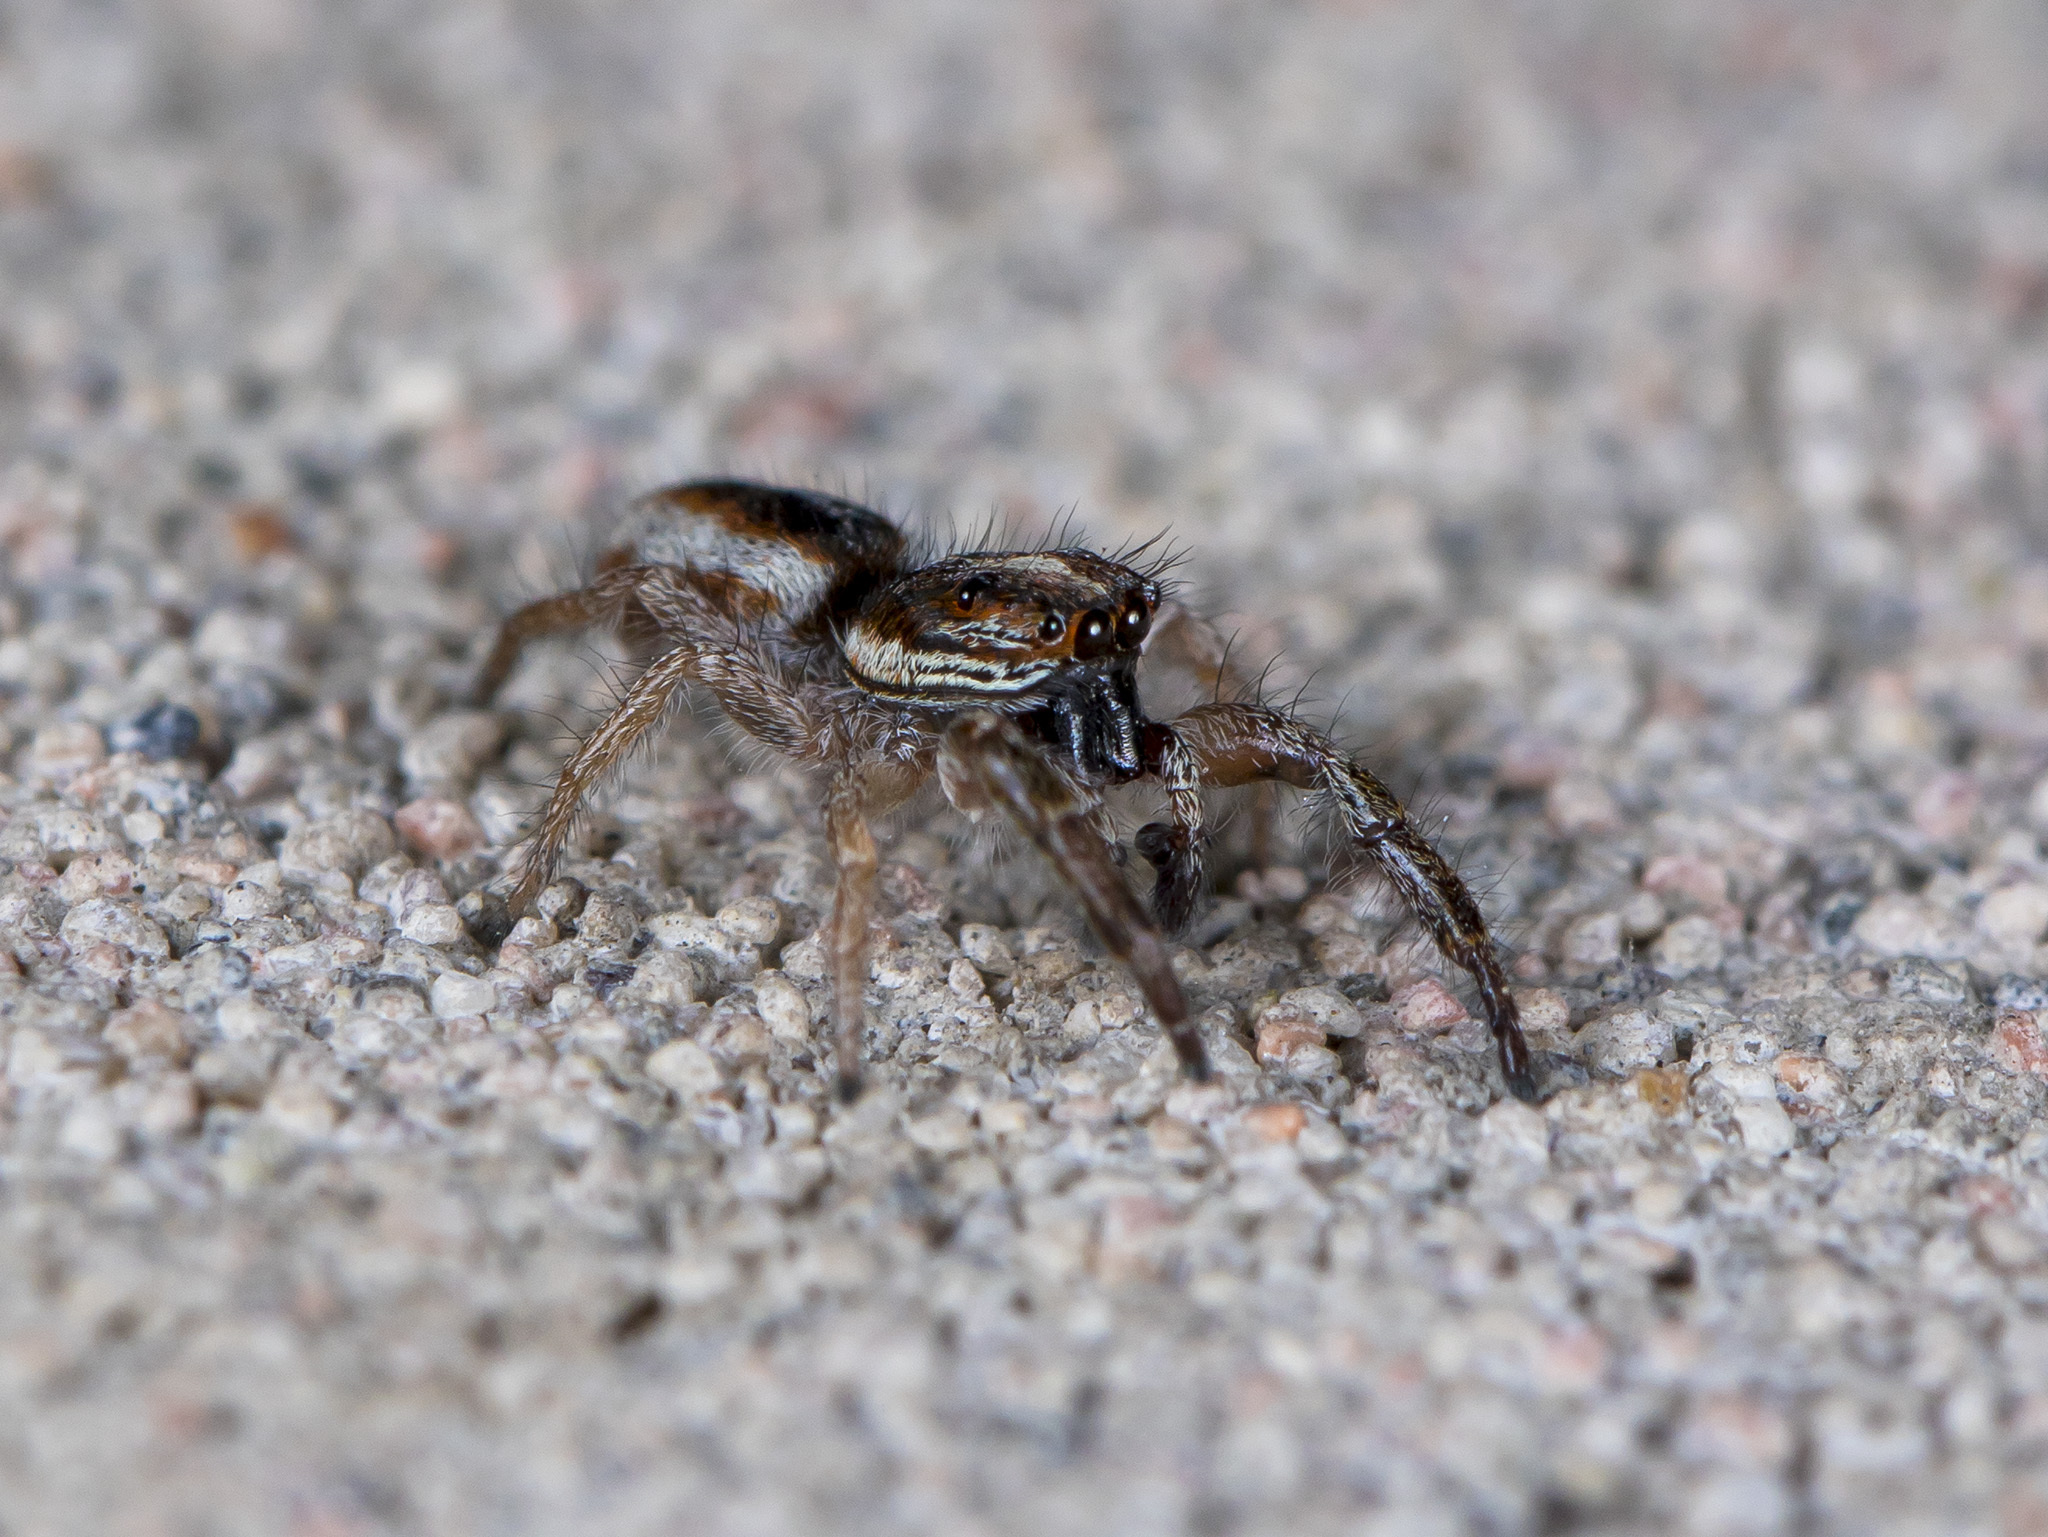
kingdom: Animalia
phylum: Arthropoda
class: Arachnida
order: Araneae
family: Salticidae
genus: Rudakius
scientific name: Rudakius cinctus
